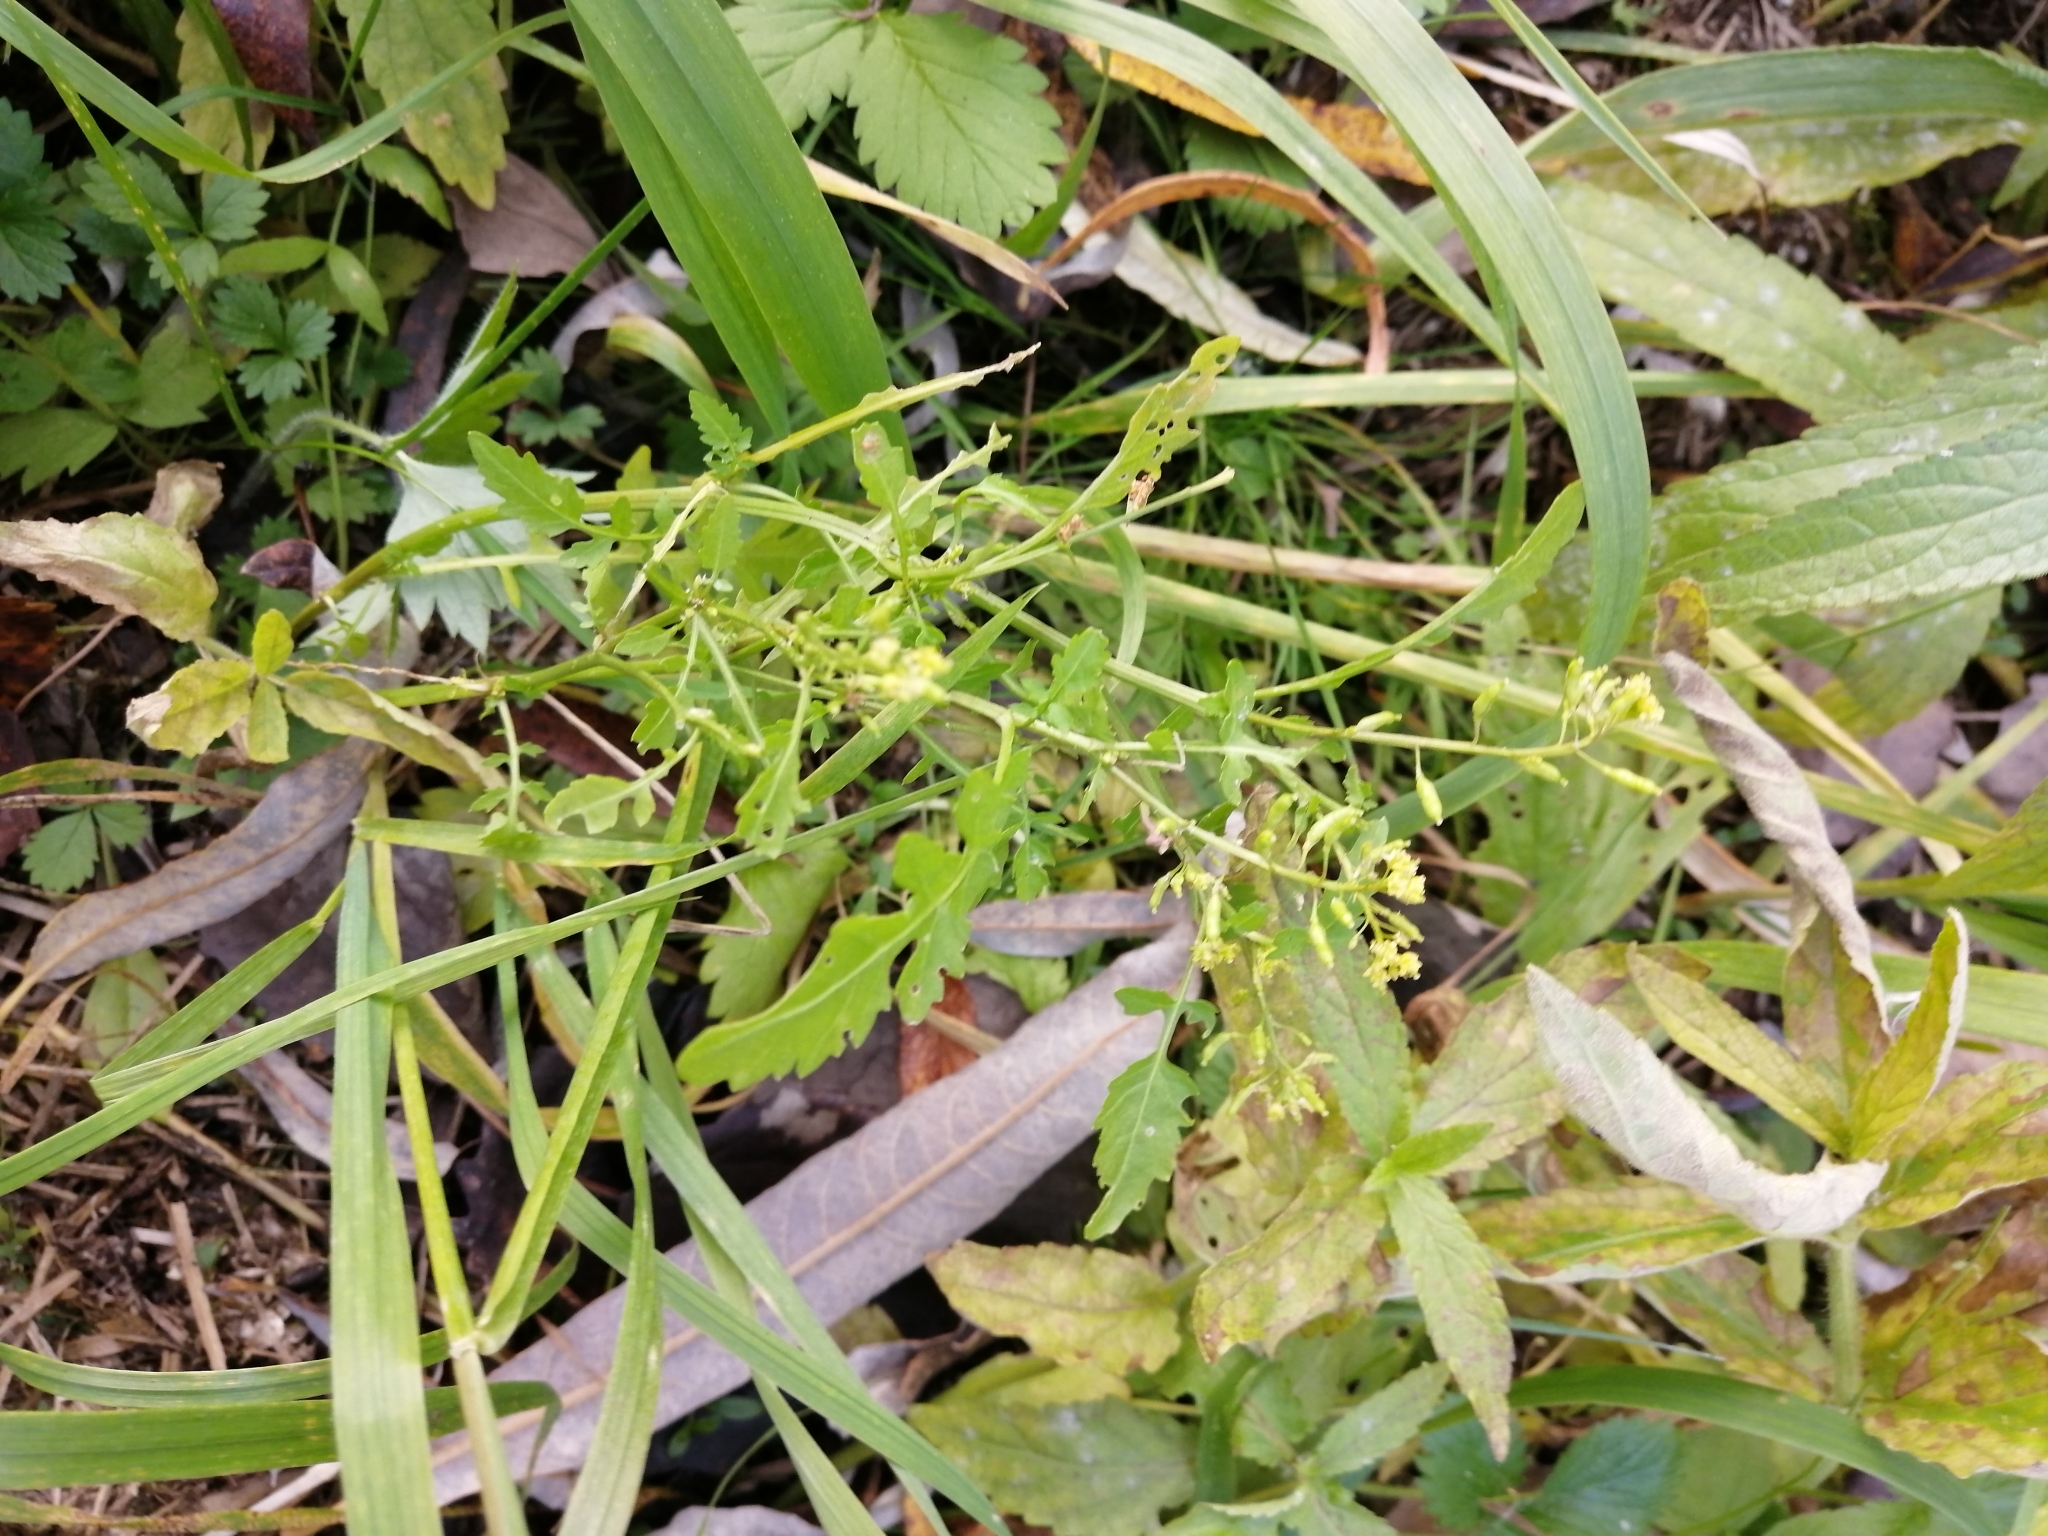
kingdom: Plantae
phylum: Tracheophyta
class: Magnoliopsida
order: Brassicales
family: Brassicaceae
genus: Rorippa
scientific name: Rorippa palustris
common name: Marsh yellow-cress
